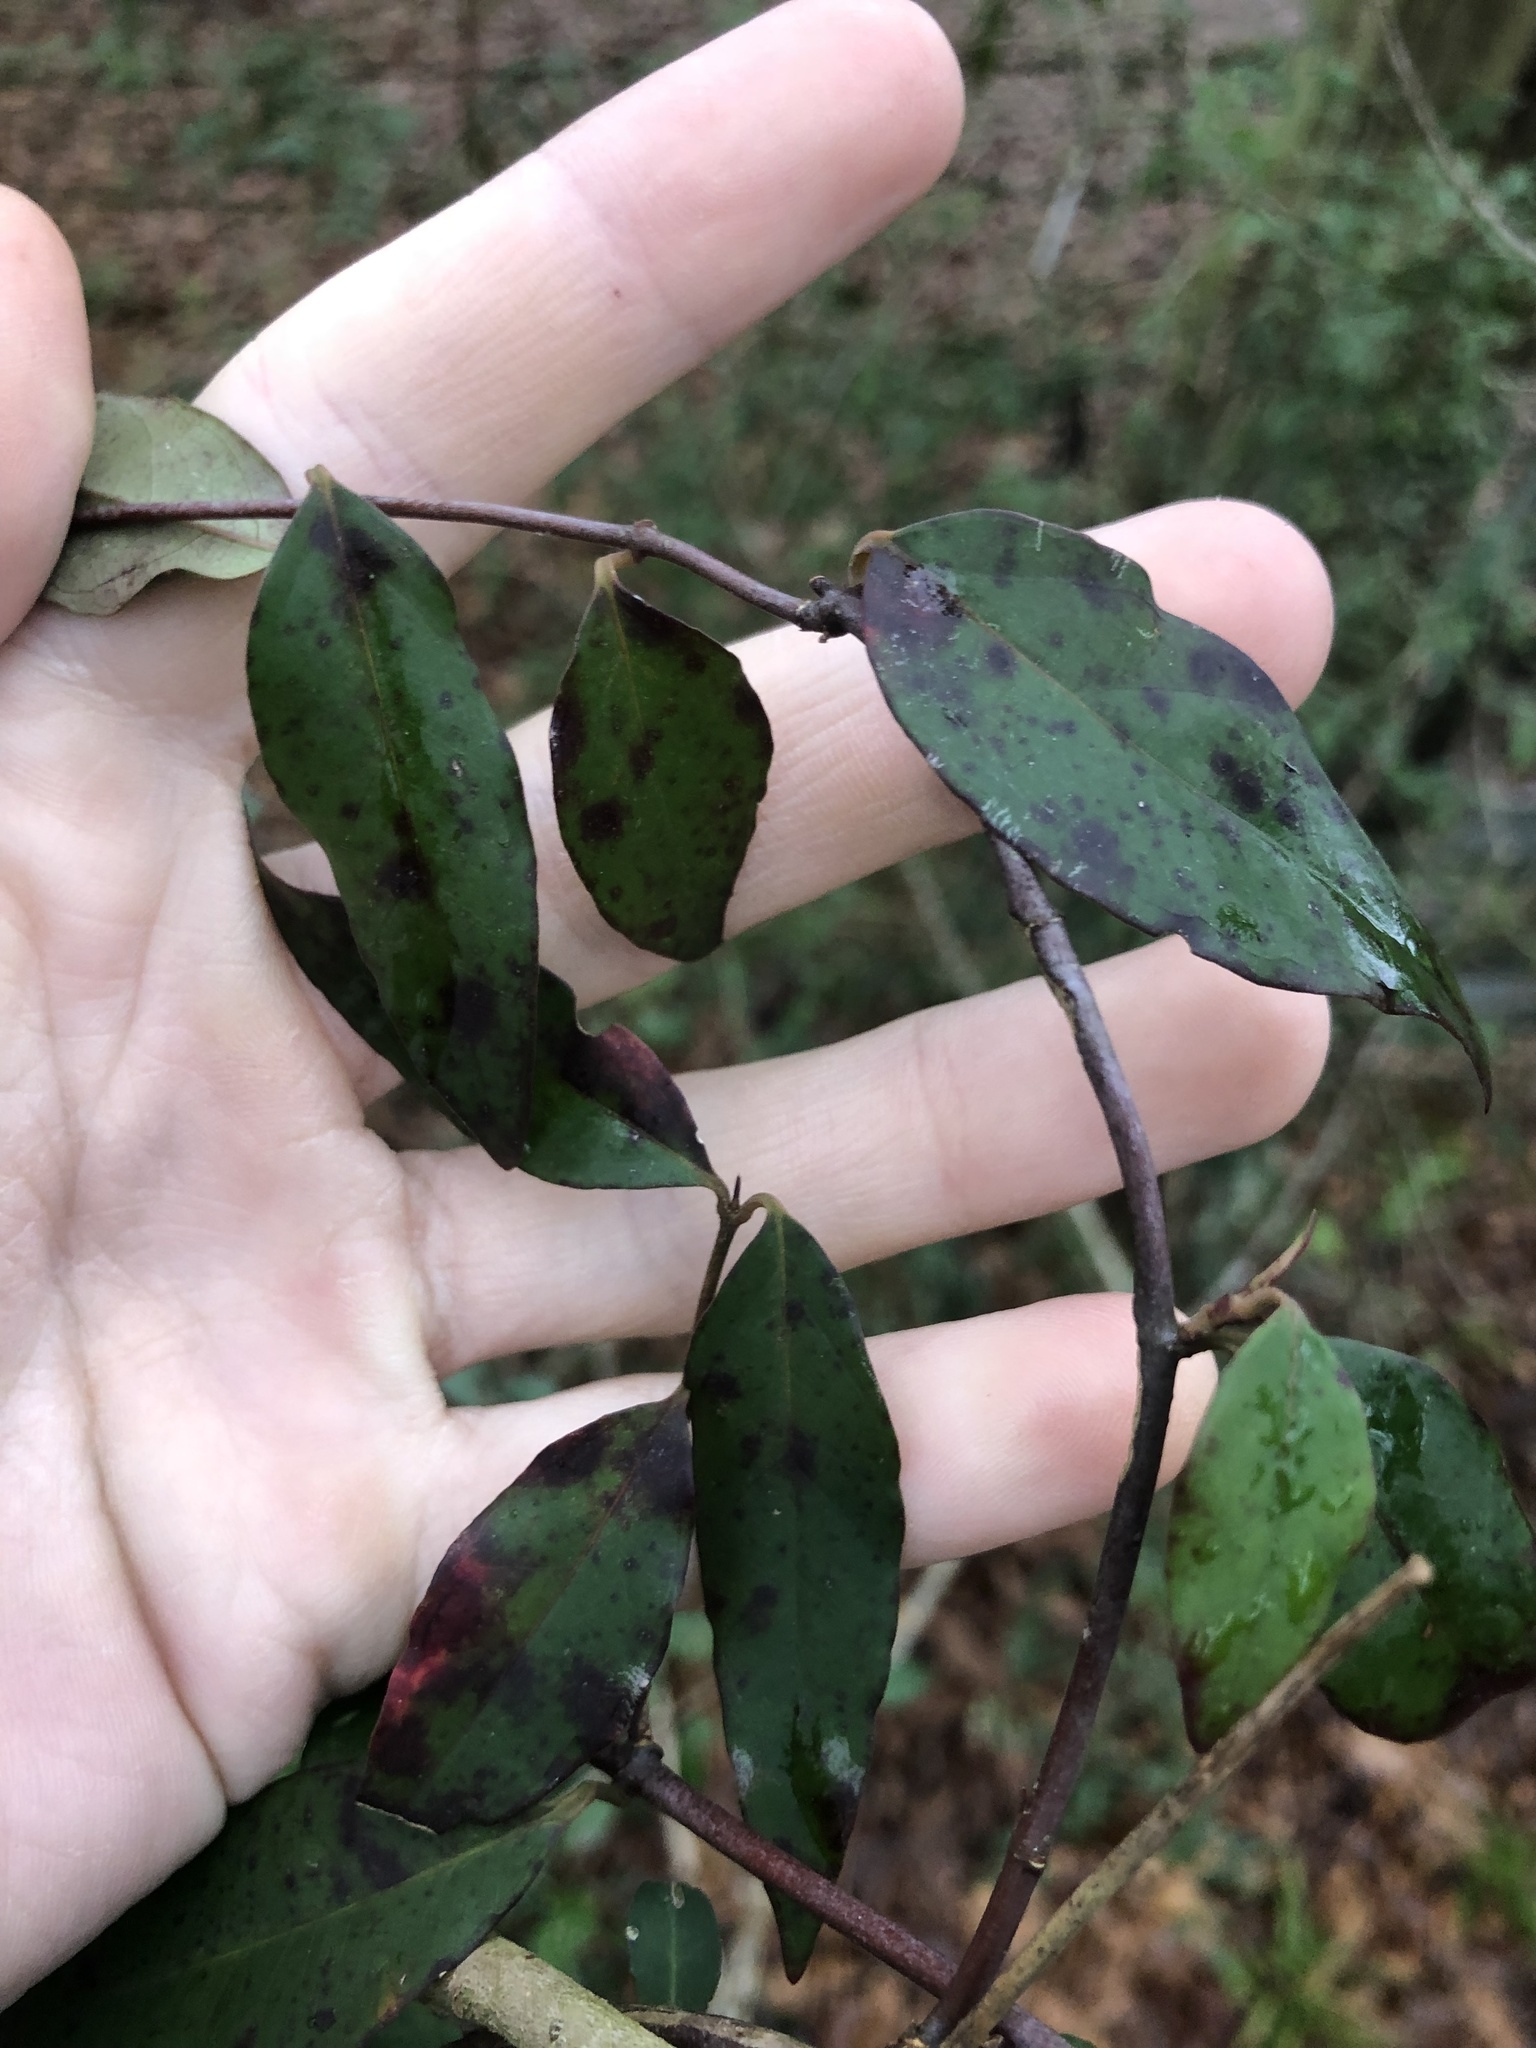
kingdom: Plantae
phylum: Tracheophyta
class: Magnoliopsida
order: Gentianales
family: Gelsemiaceae
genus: Gelsemium
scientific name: Gelsemium sempervirens
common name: Carolina-jasmine
